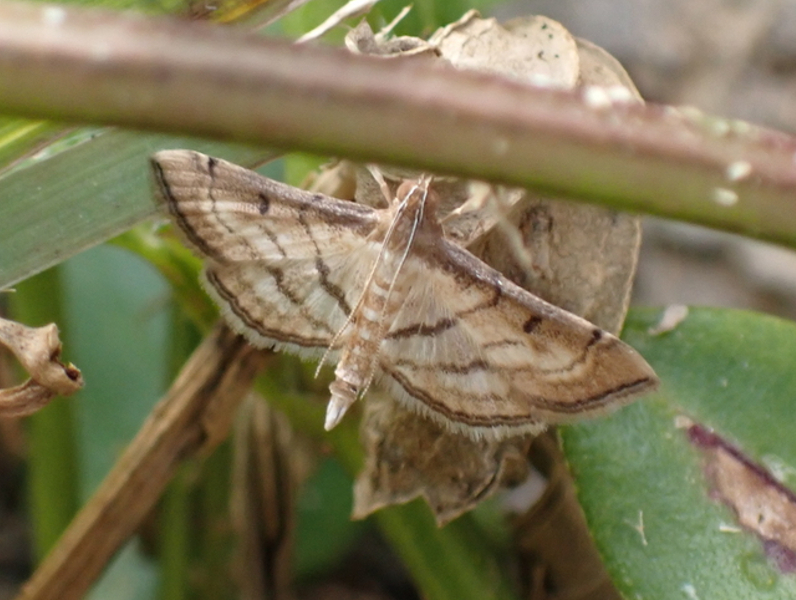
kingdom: Animalia
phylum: Arthropoda
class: Insecta
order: Lepidoptera
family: Crambidae
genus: Cnaphalocrocis
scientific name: Cnaphalocrocis Marasmia trapezalis
